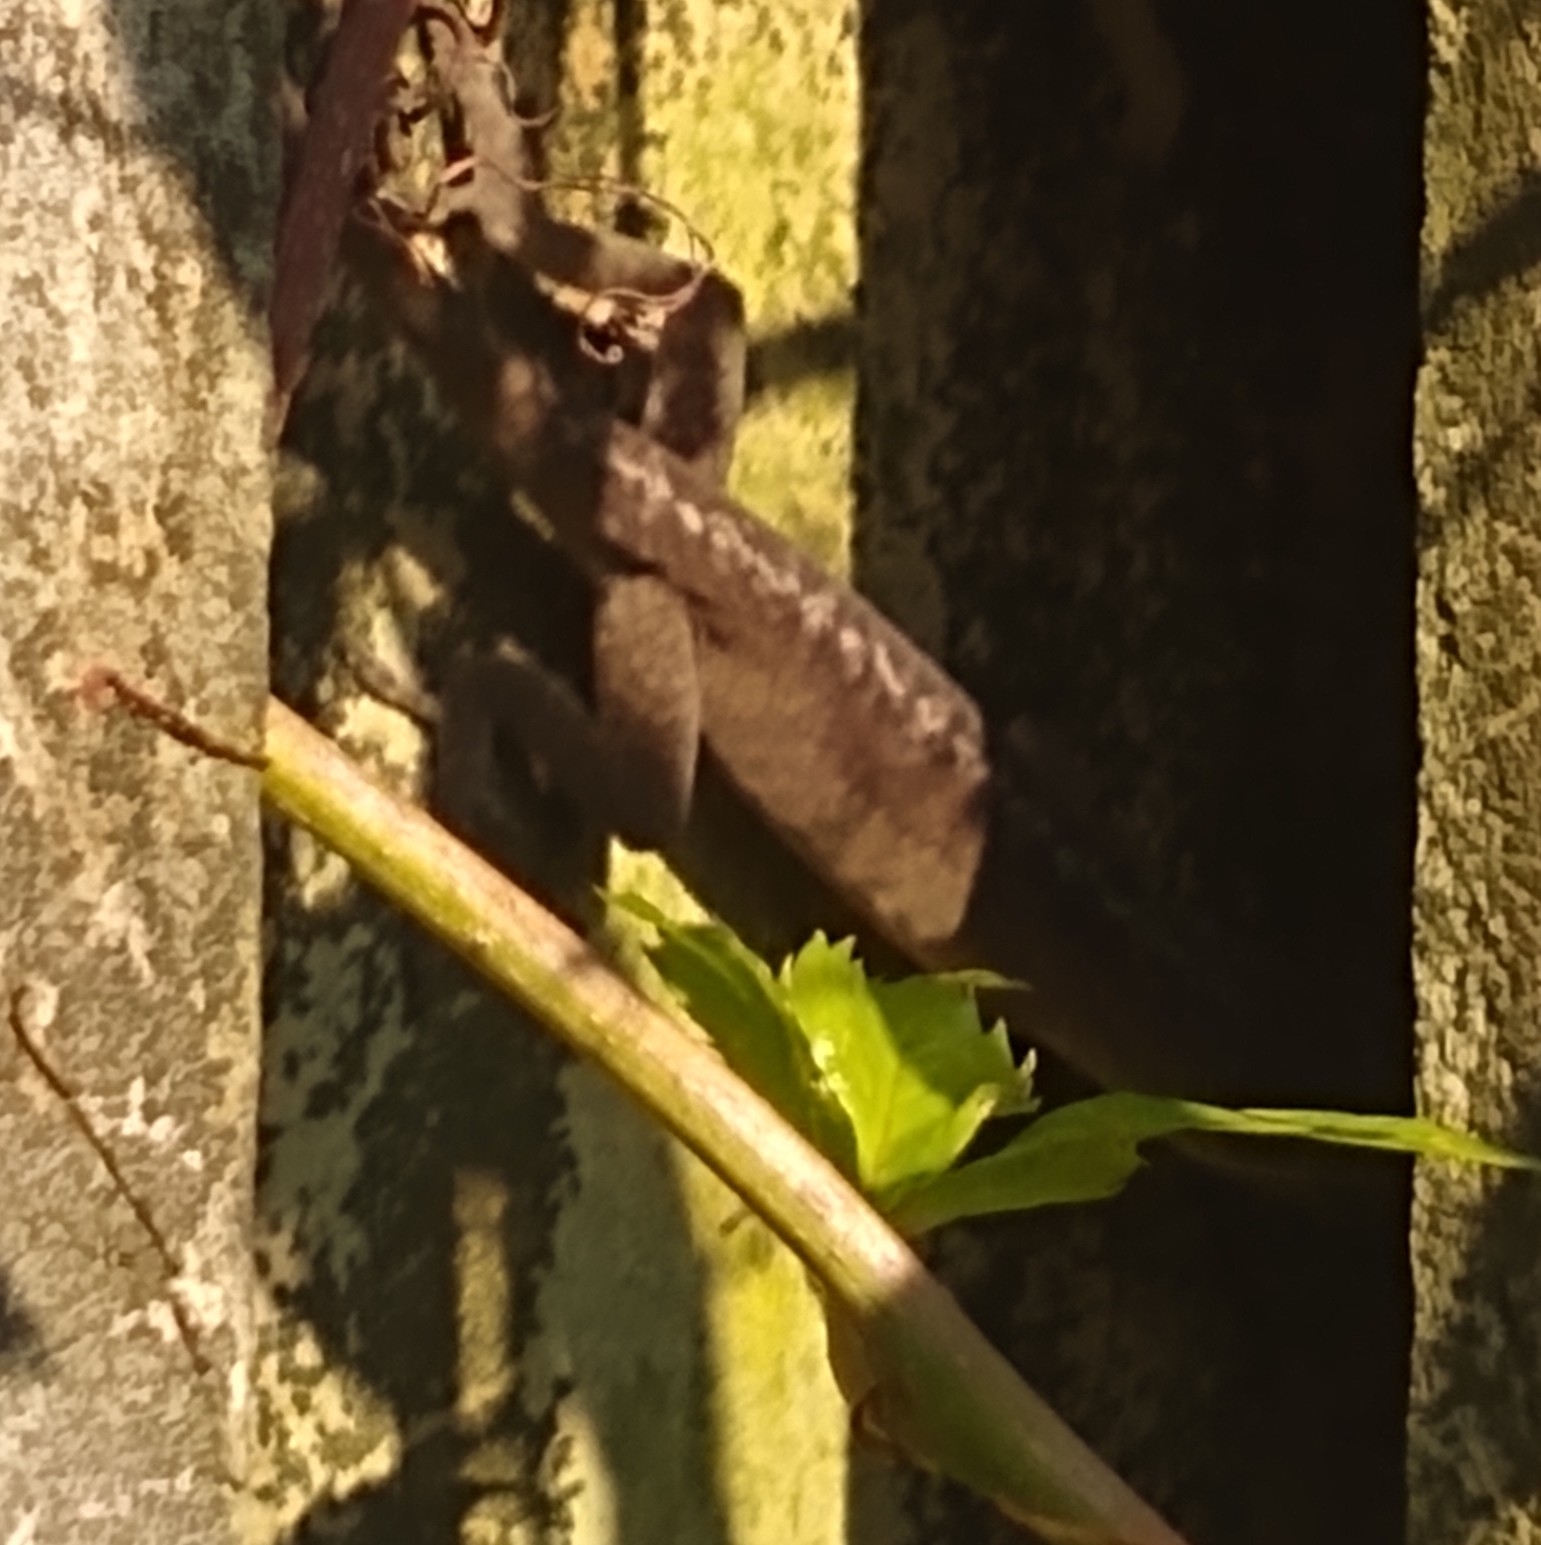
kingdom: Animalia
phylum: Chordata
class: Squamata
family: Dactyloidae
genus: Anolis
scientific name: Anolis carolinensis
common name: Green anole
